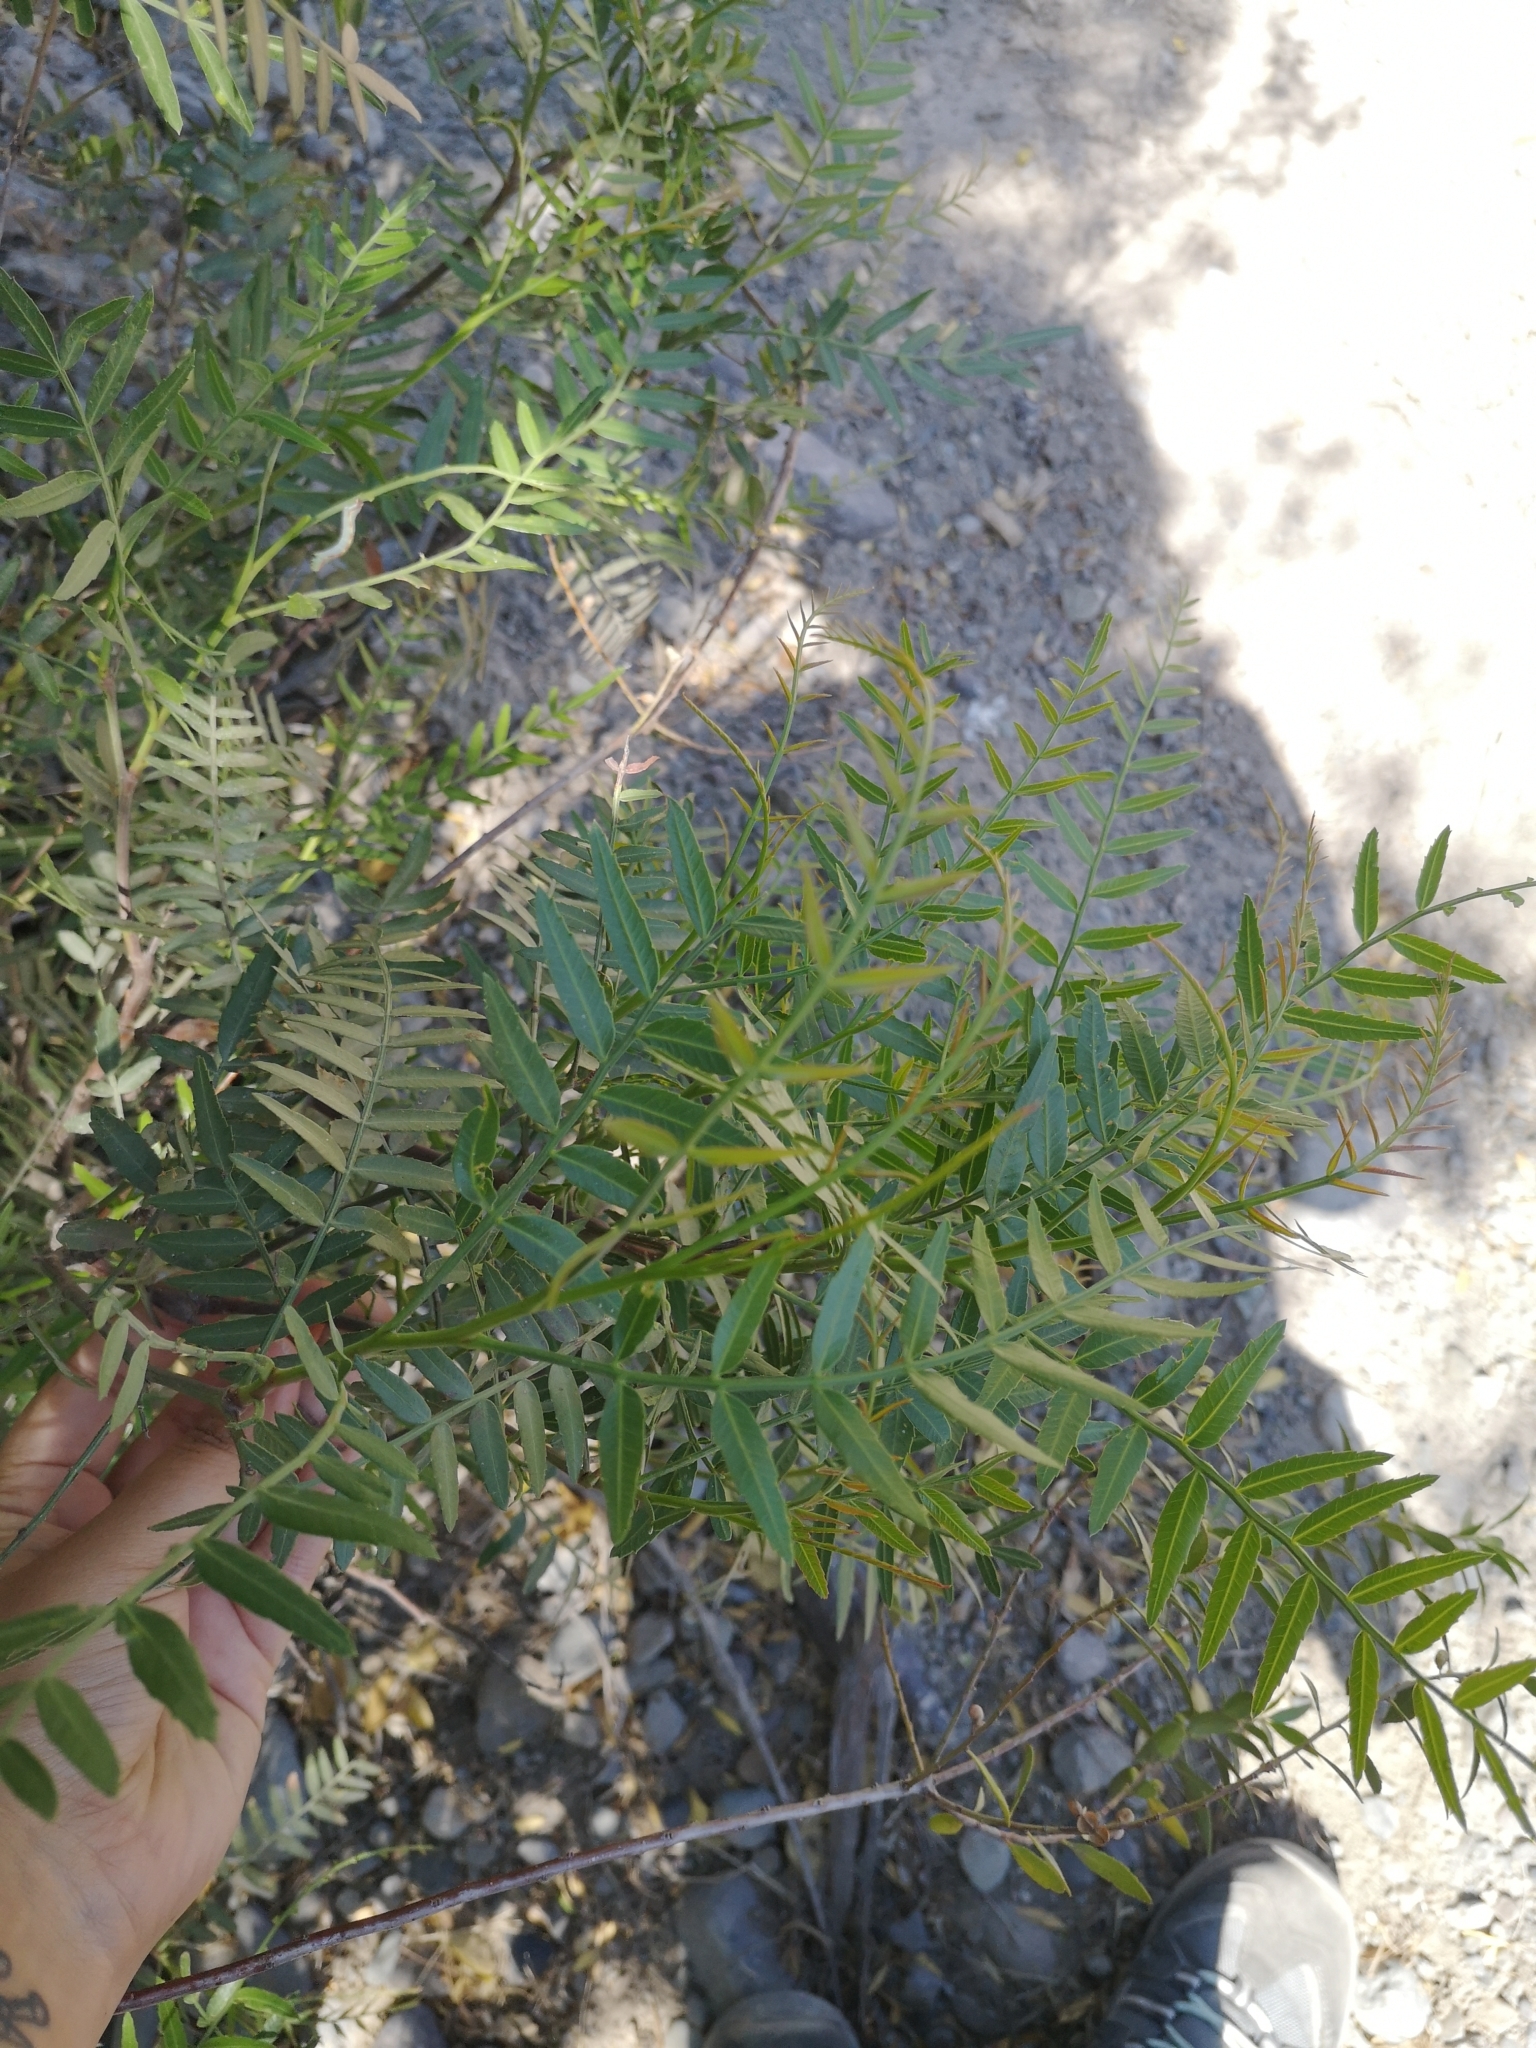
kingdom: Plantae
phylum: Tracheophyta
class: Magnoliopsida
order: Sapindales
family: Anacardiaceae
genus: Schinus
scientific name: Schinus areira
